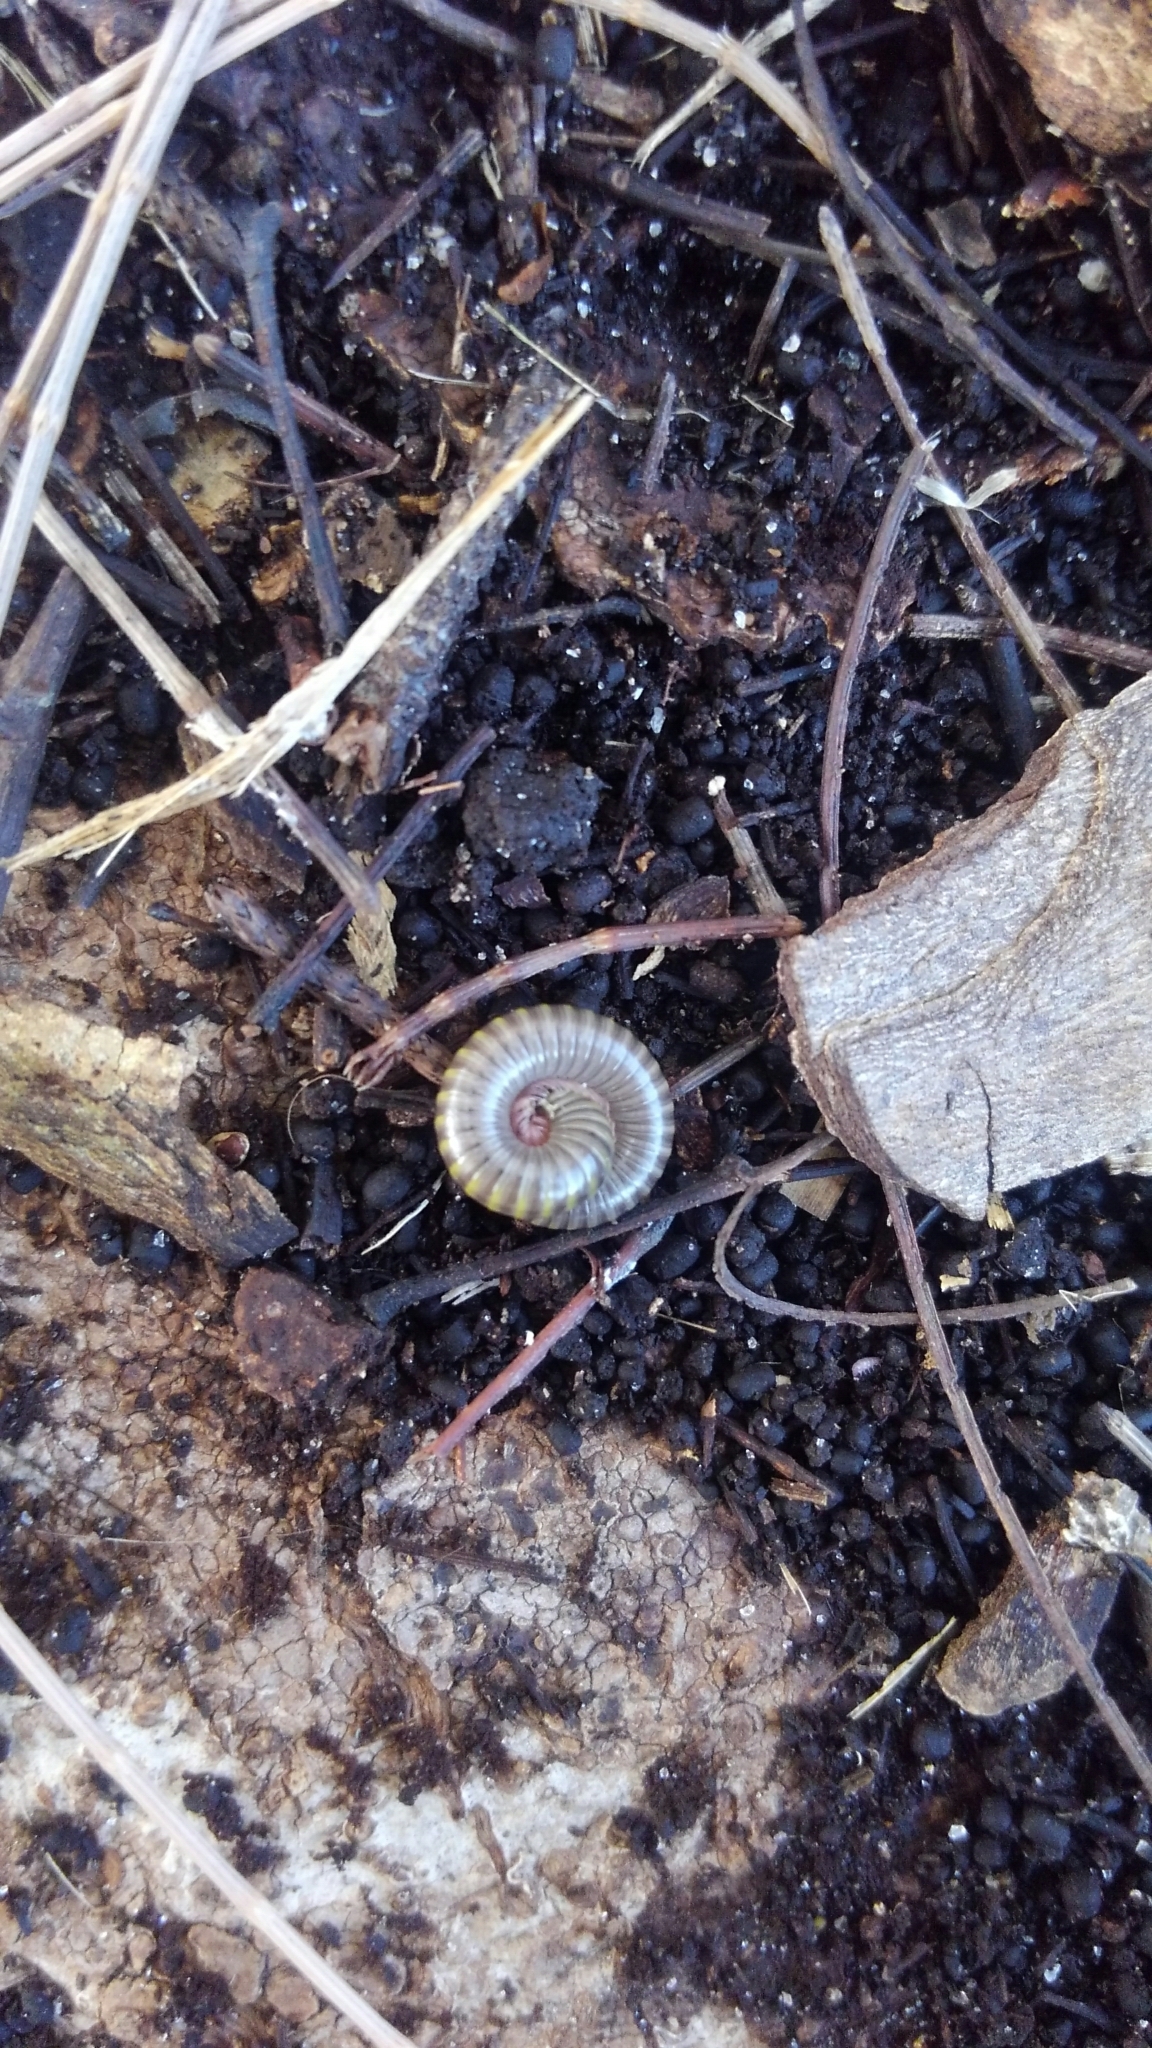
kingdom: Animalia
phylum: Arthropoda
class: Diplopoda
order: Spirobolida
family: Rhinocricidae
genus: Anadenobolus
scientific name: Anadenobolus monilicornis
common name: Caribbean millipede
